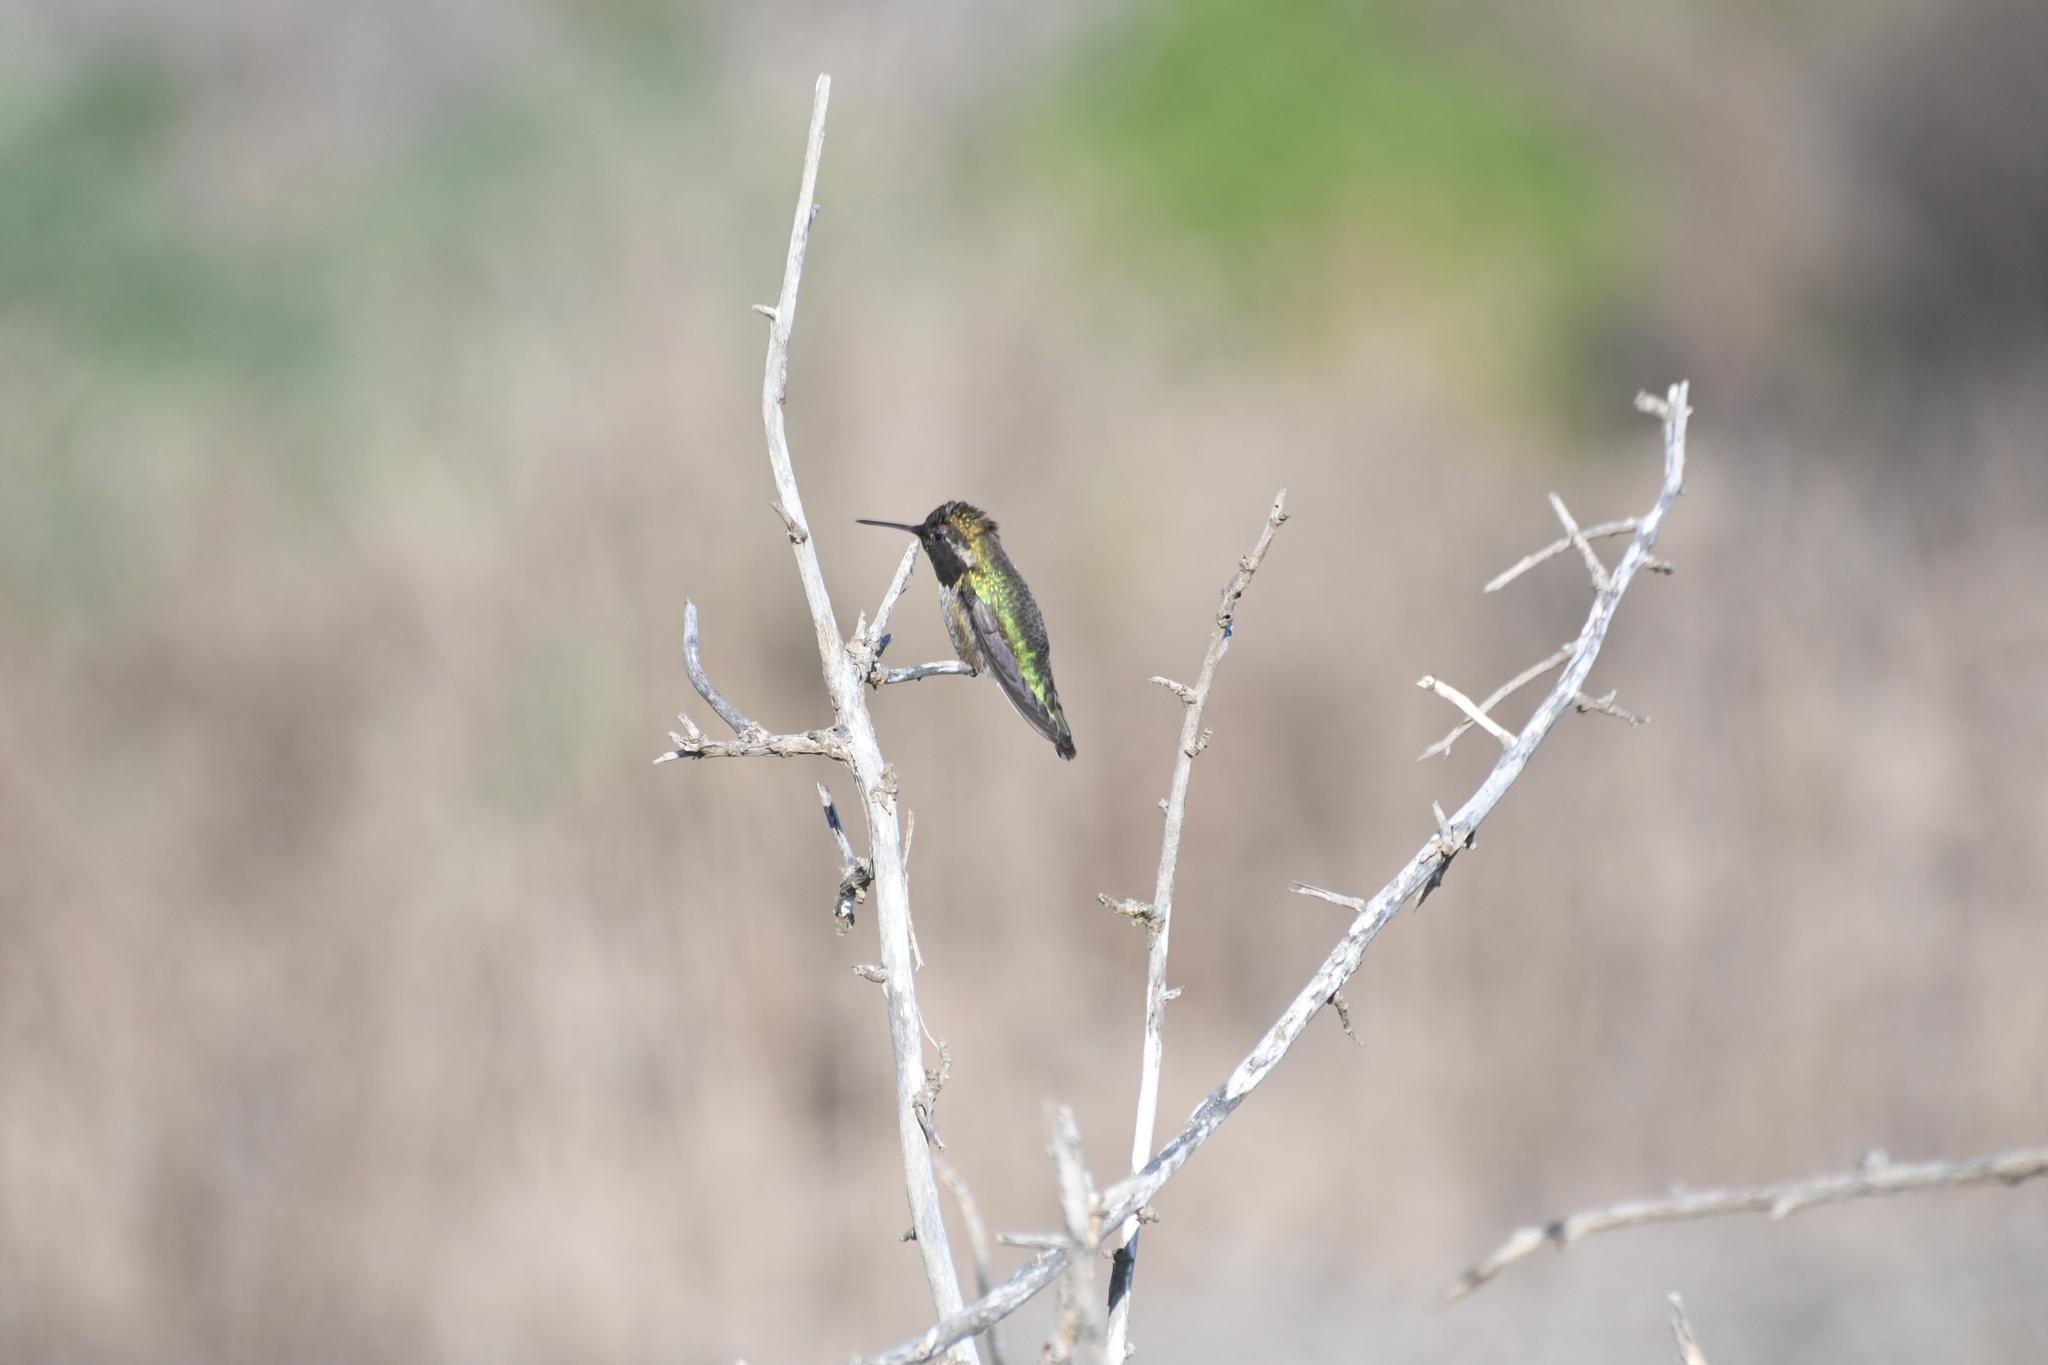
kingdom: Animalia
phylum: Chordata
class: Aves
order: Apodiformes
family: Trochilidae
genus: Calypte
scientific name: Calypte anna
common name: Anna's hummingbird
